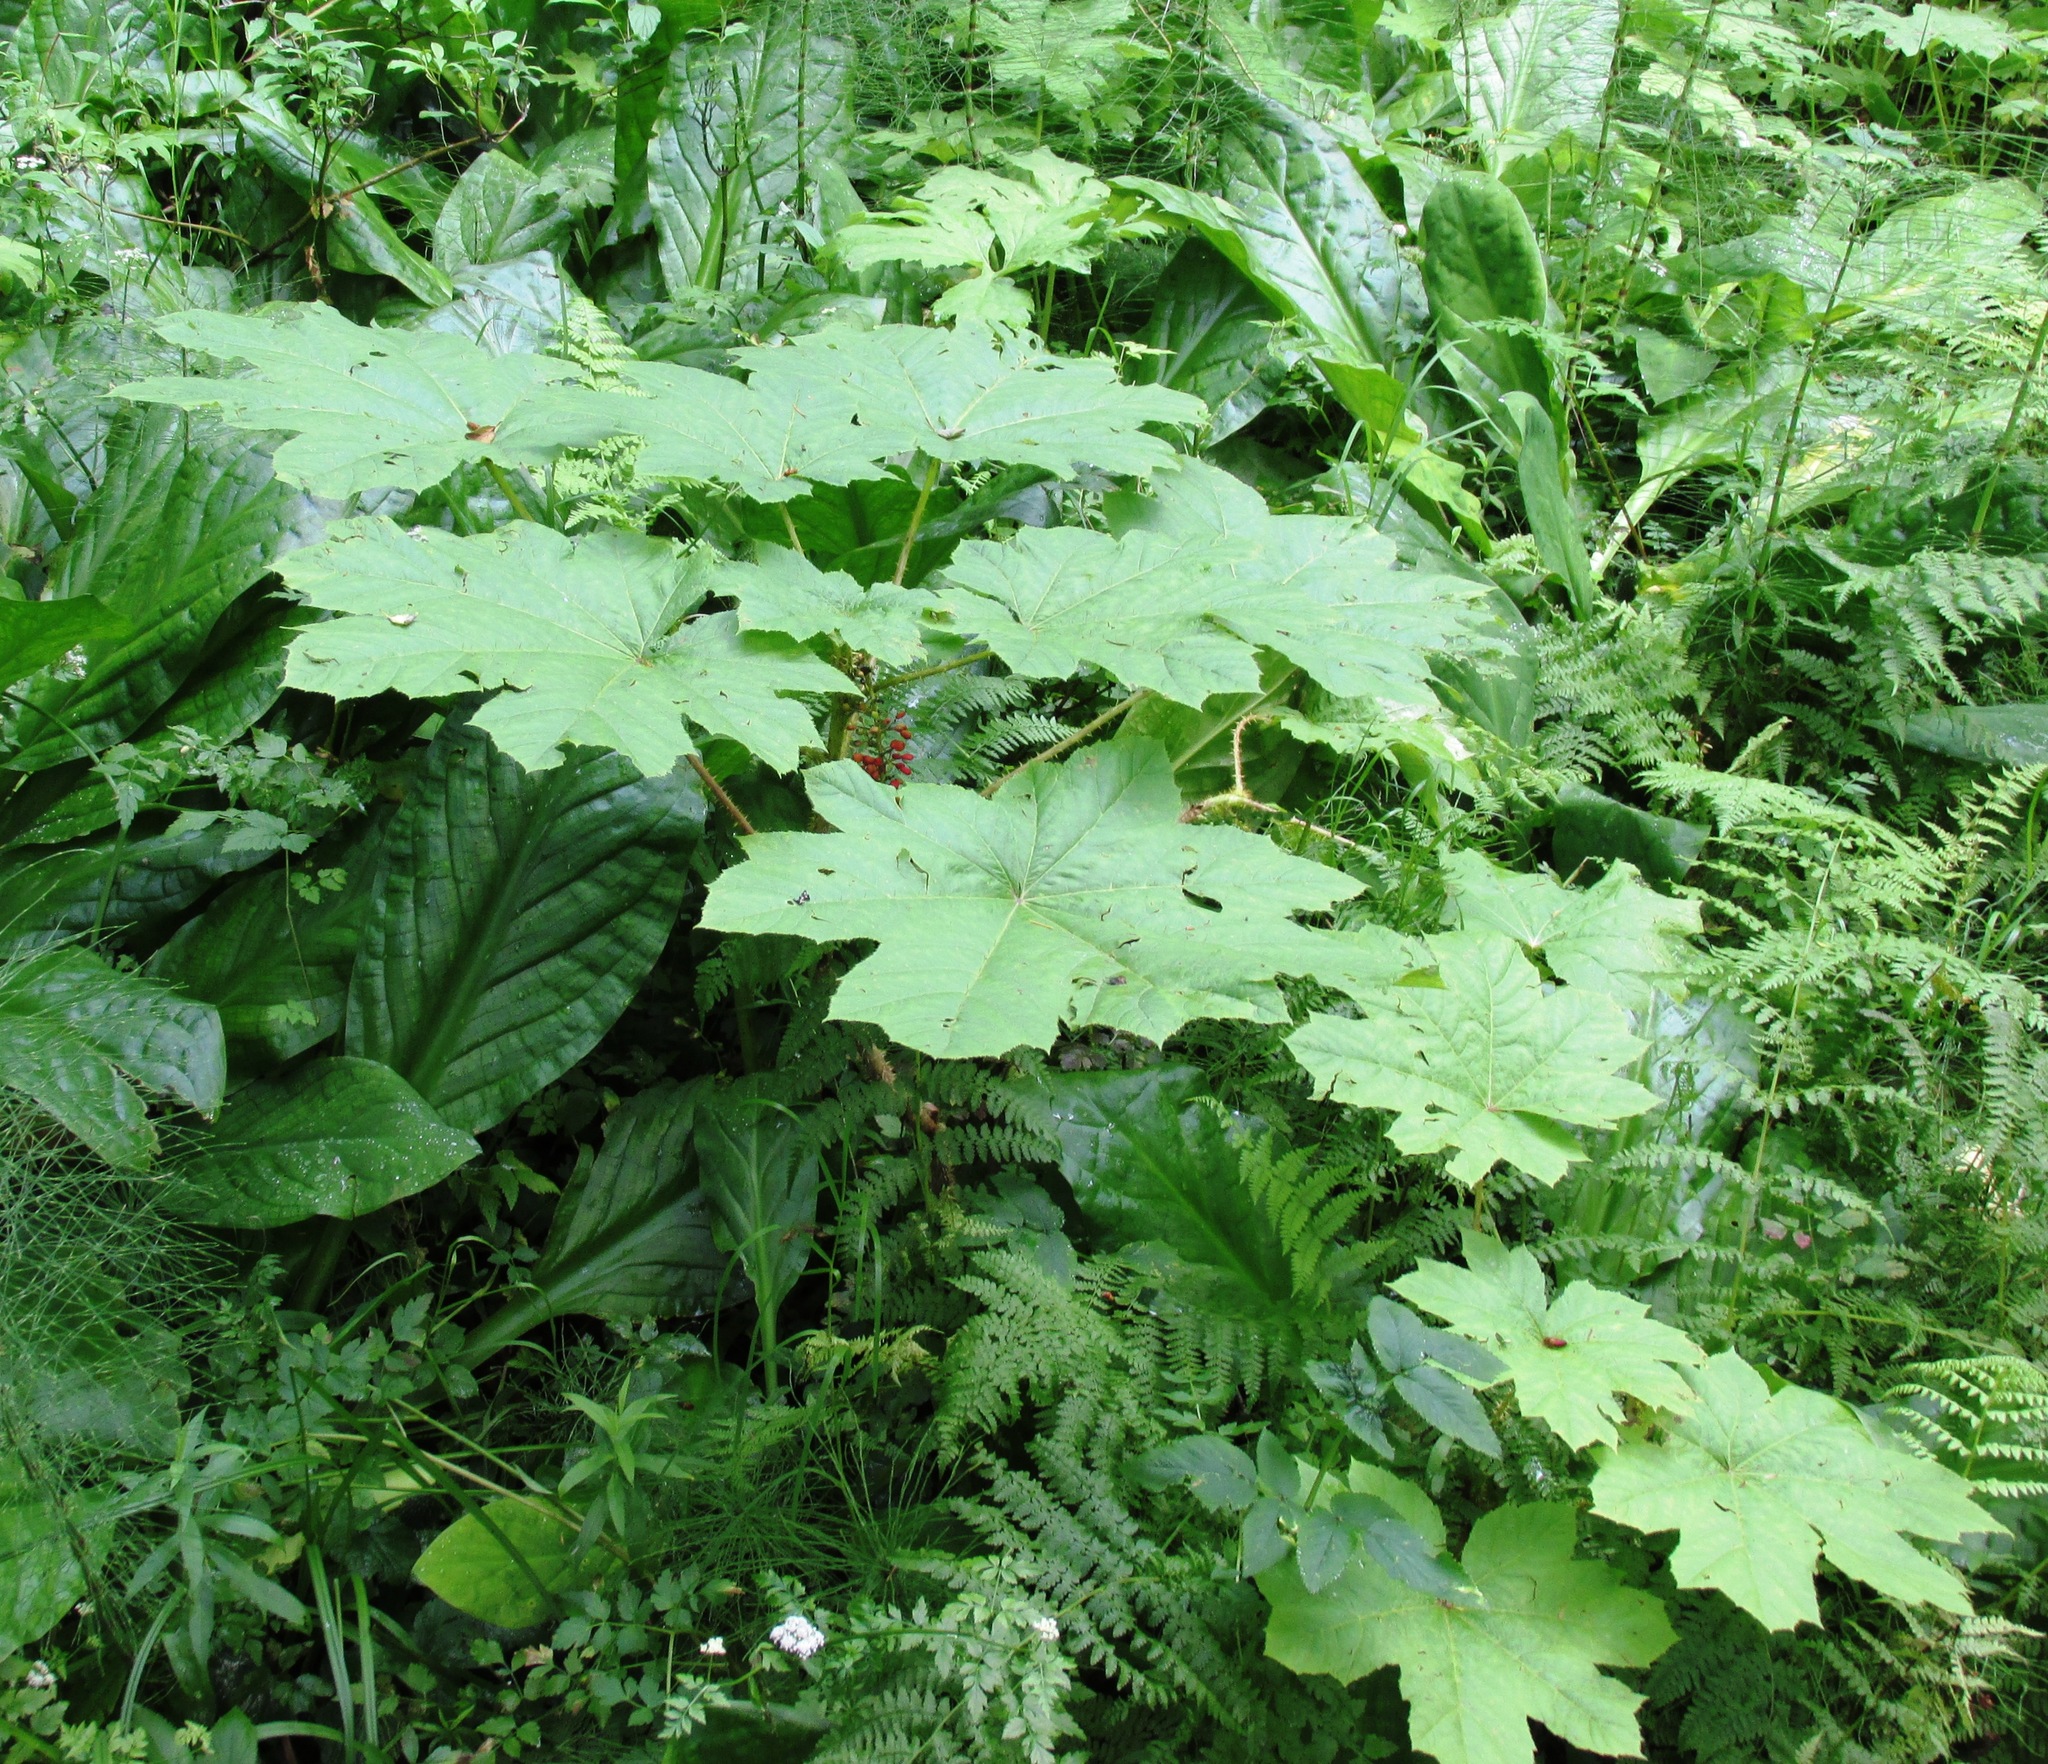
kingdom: Plantae
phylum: Tracheophyta
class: Magnoliopsida
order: Apiales
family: Araliaceae
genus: Oplopanax
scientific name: Oplopanax horridus
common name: Devil's walking-stick
